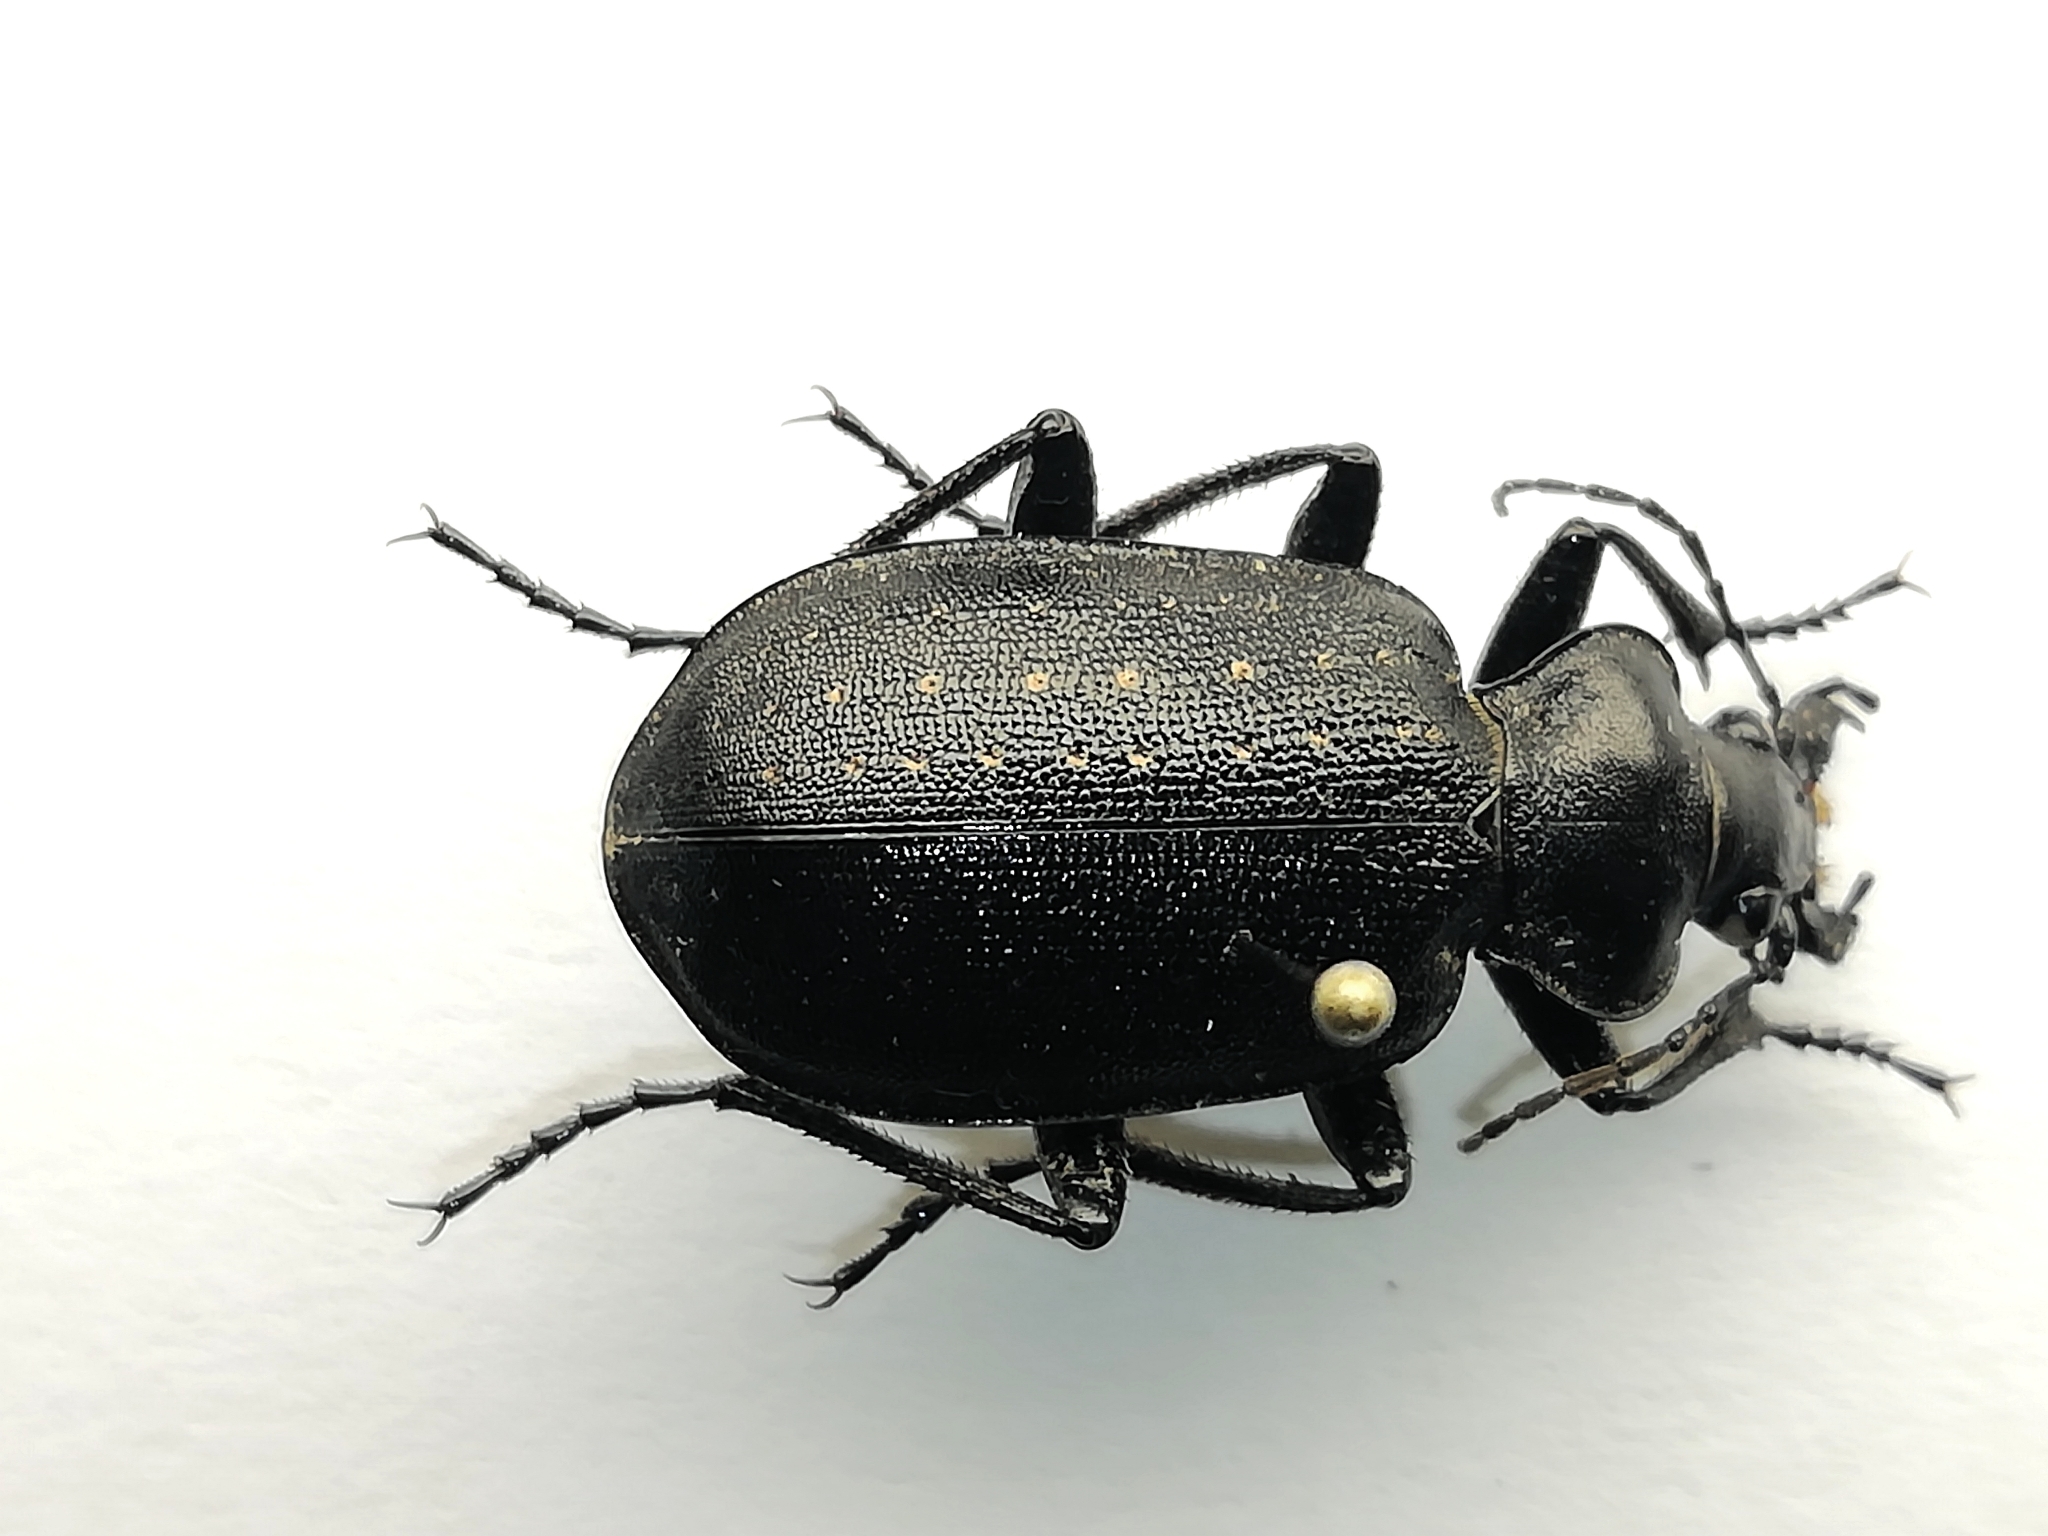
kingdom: Animalia
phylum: Arthropoda
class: Insecta
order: Coleoptera
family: Carabidae
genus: Calosoma
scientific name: Calosoma denticolle
